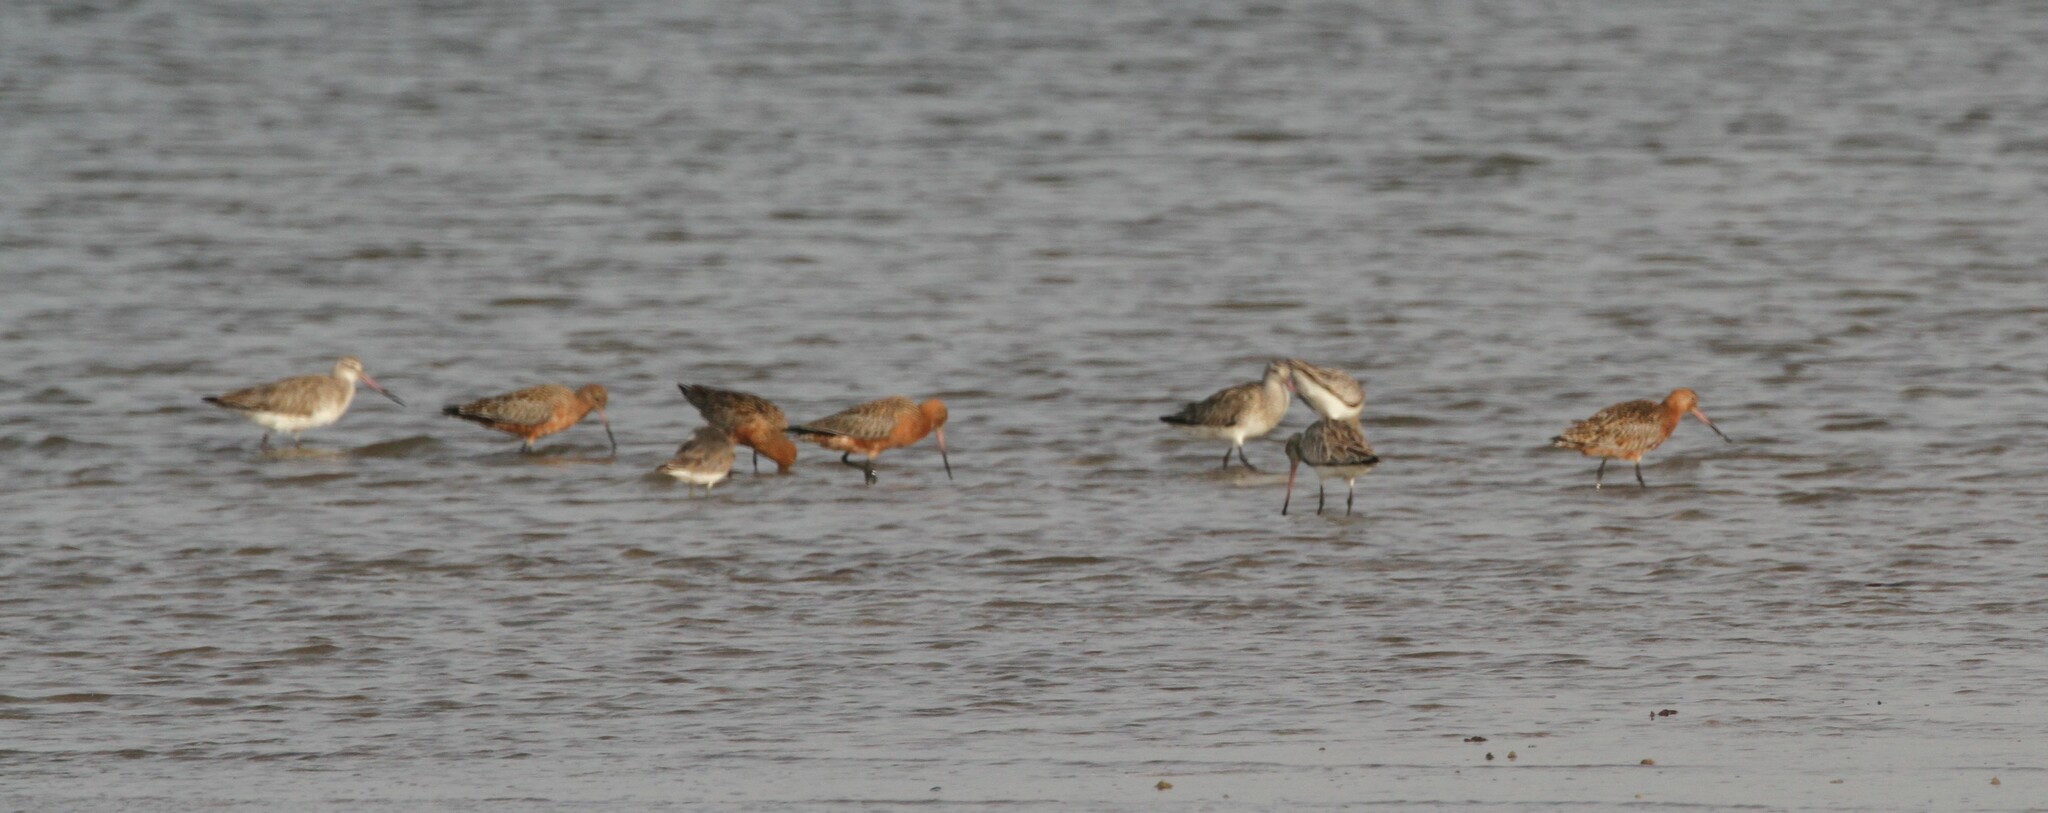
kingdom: Animalia
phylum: Chordata
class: Aves
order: Charadriiformes
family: Scolopacidae
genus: Limosa
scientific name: Limosa lapponica
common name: Bar-tailed godwit
